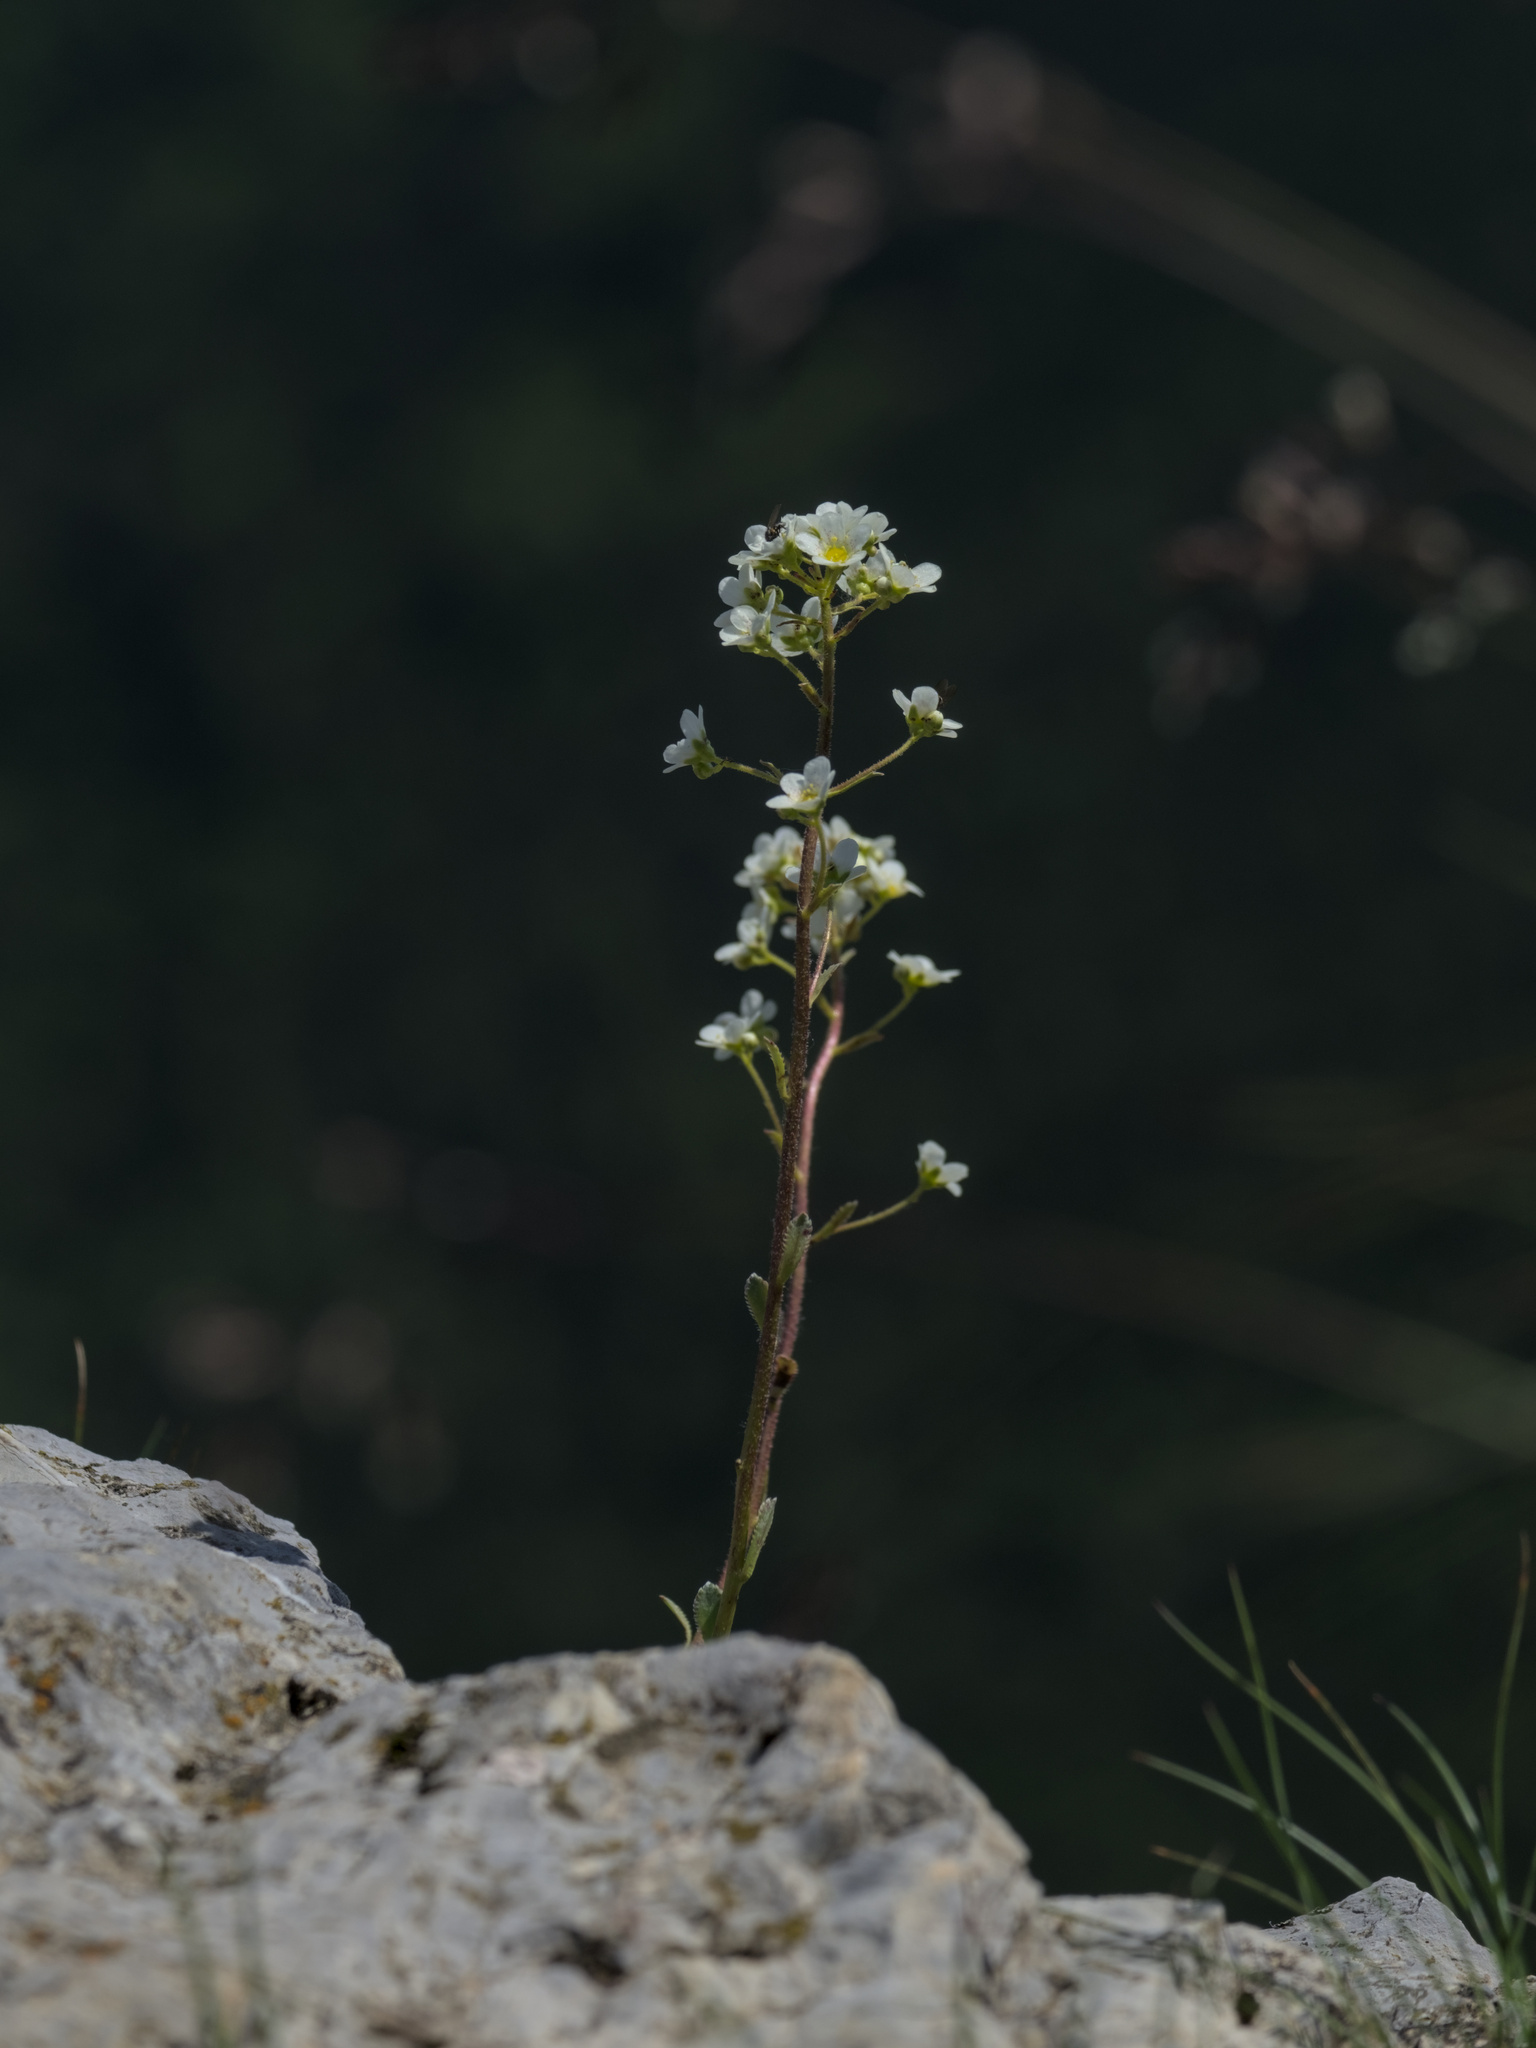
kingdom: Plantae
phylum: Tracheophyta
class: Magnoliopsida
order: Saxifragales
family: Saxifragaceae
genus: Saxifraga
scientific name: Saxifraga paniculata
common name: Livelong saxifrage
